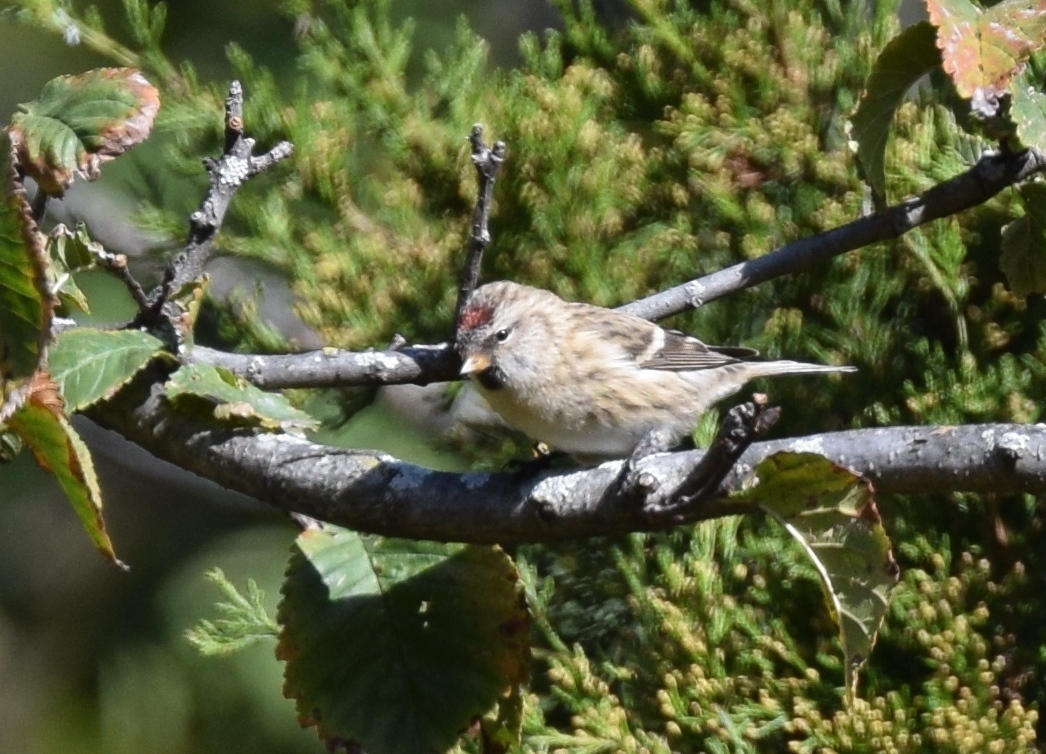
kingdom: Animalia
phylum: Chordata
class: Aves
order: Passeriformes
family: Fringillidae
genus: Acanthis
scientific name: Acanthis flammea
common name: Common redpoll
